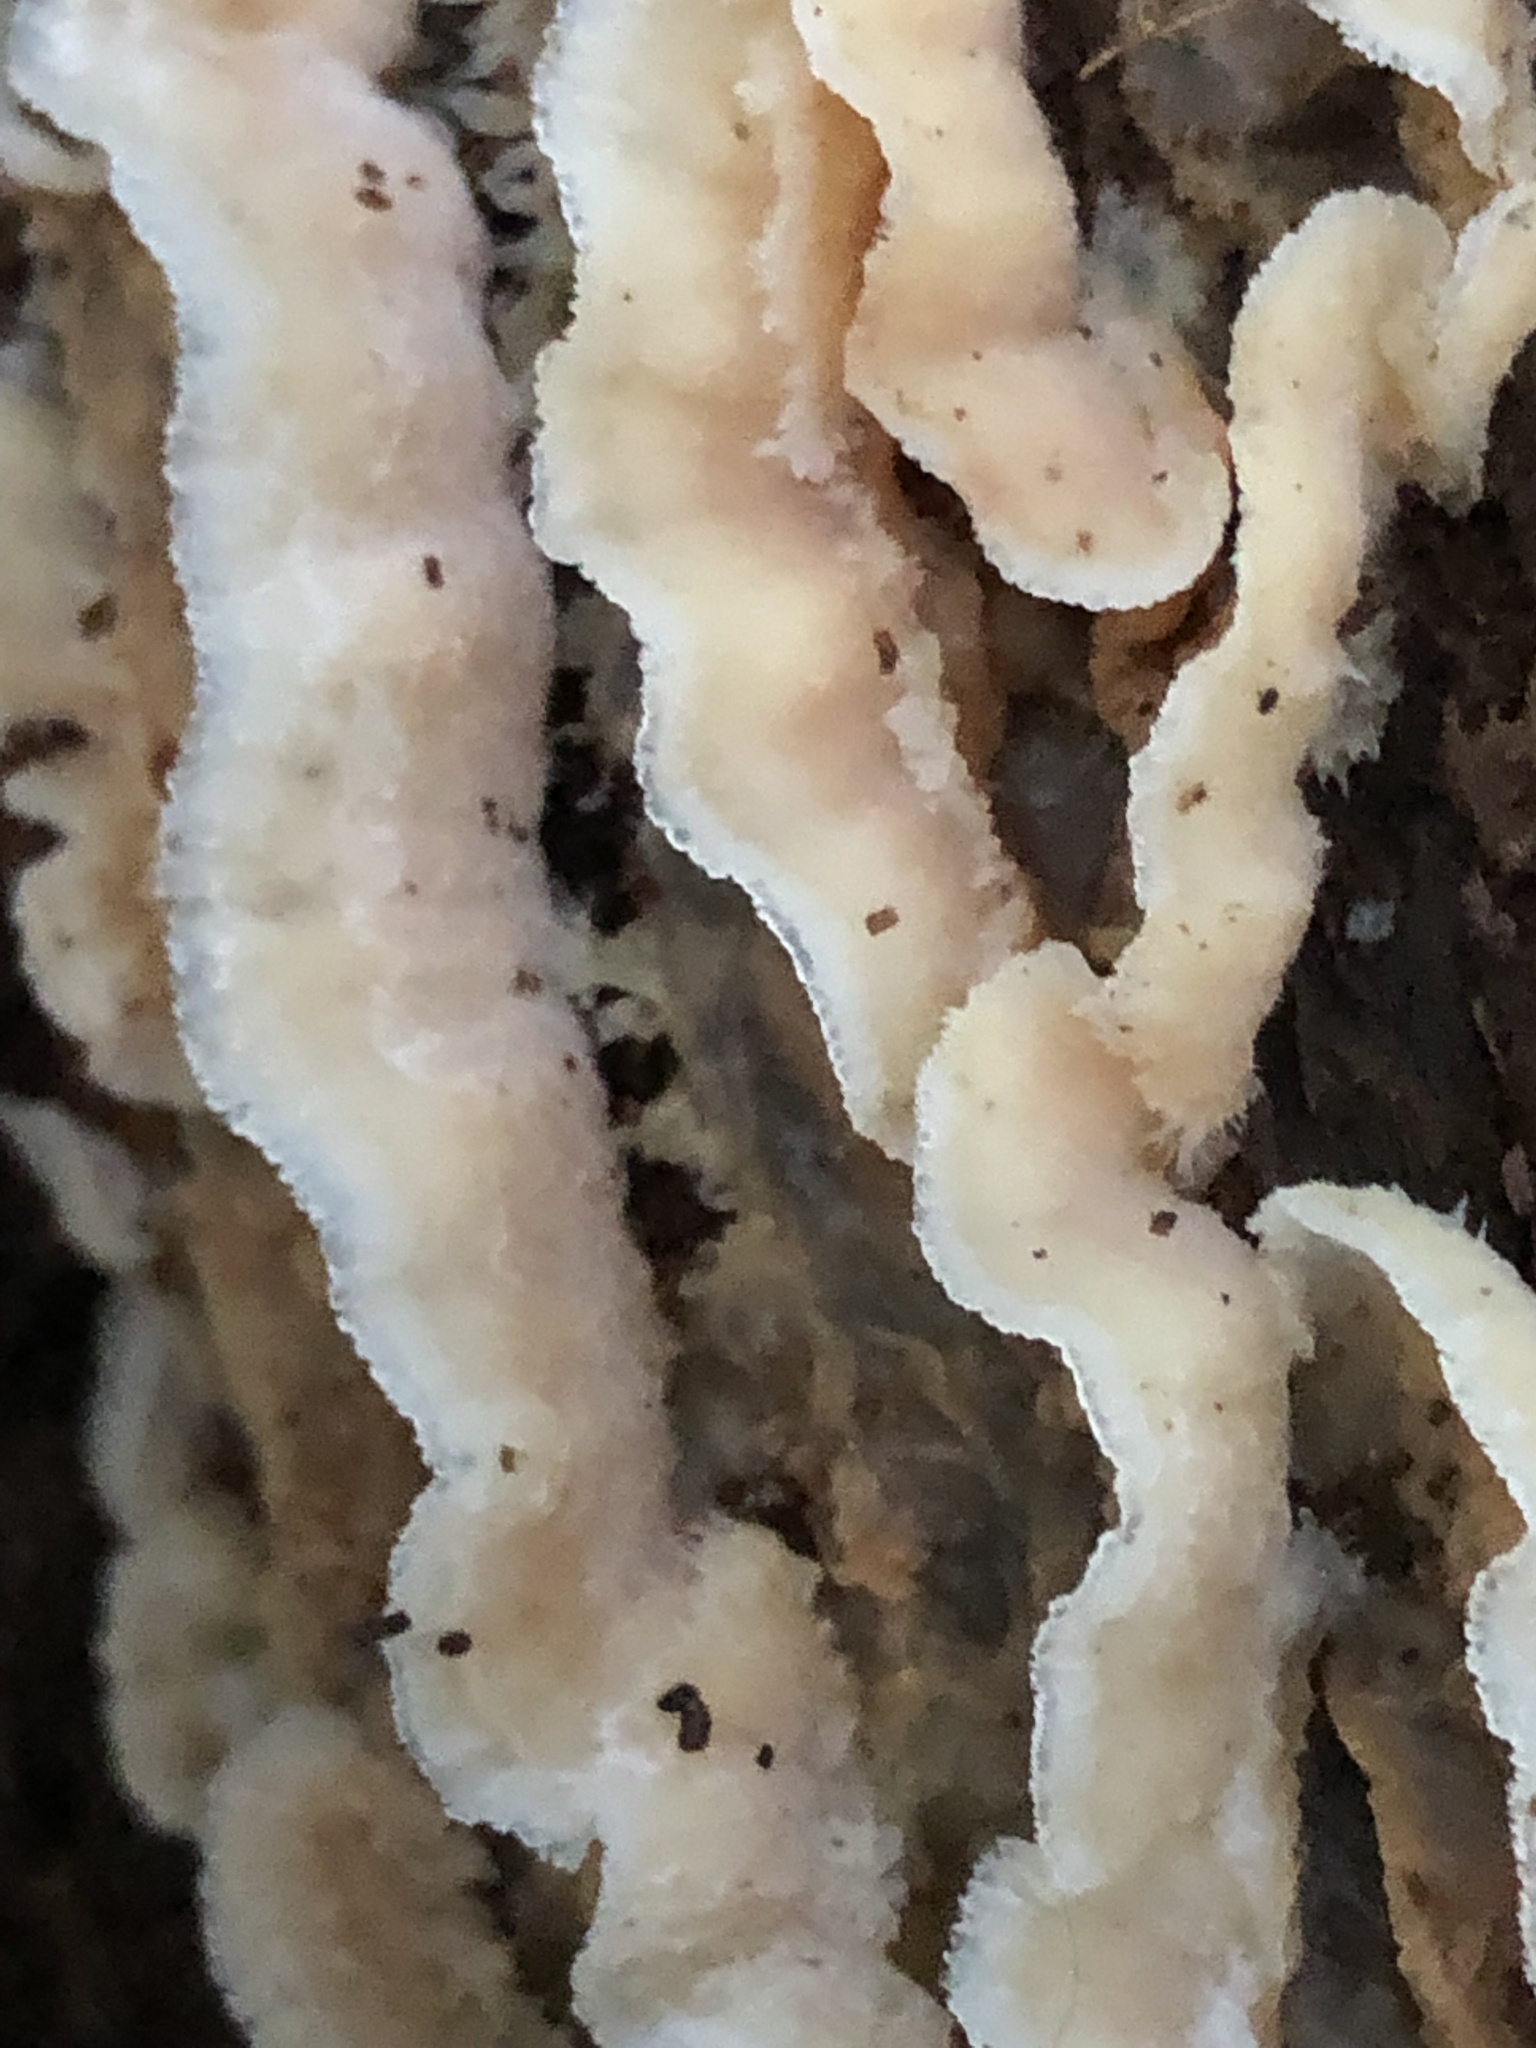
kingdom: Fungi
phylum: Basidiomycota
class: Agaricomycetes
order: Polyporales
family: Meruliaceae
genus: Phlebia
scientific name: Phlebia tremellosa
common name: Jelly rot
